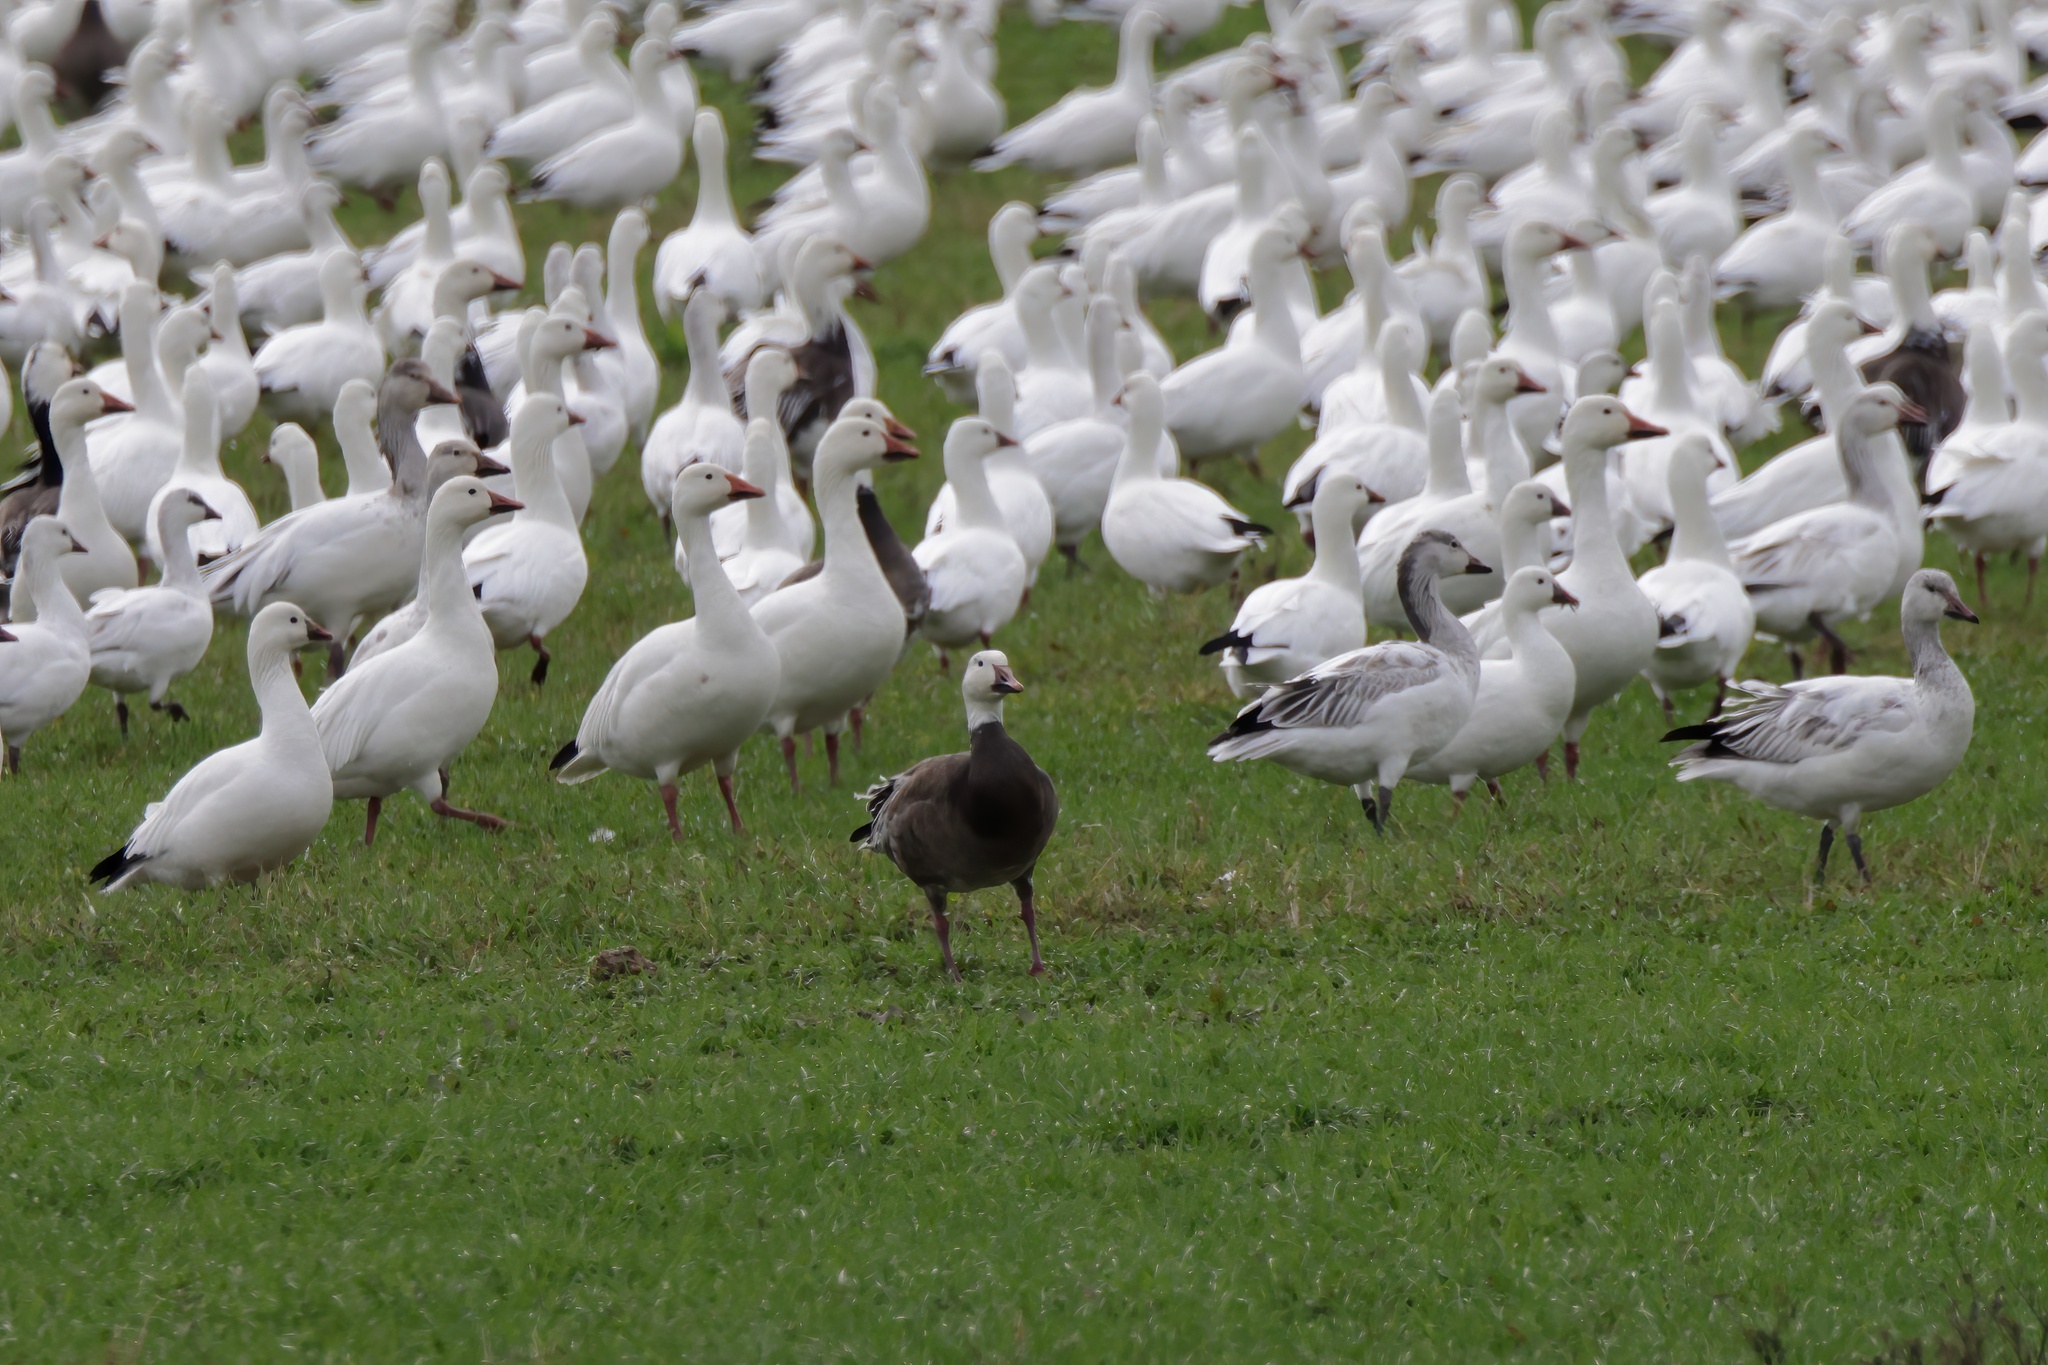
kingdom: Animalia
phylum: Chordata
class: Aves
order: Anseriformes
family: Anatidae
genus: Anser
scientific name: Anser caerulescens
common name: Snow goose
